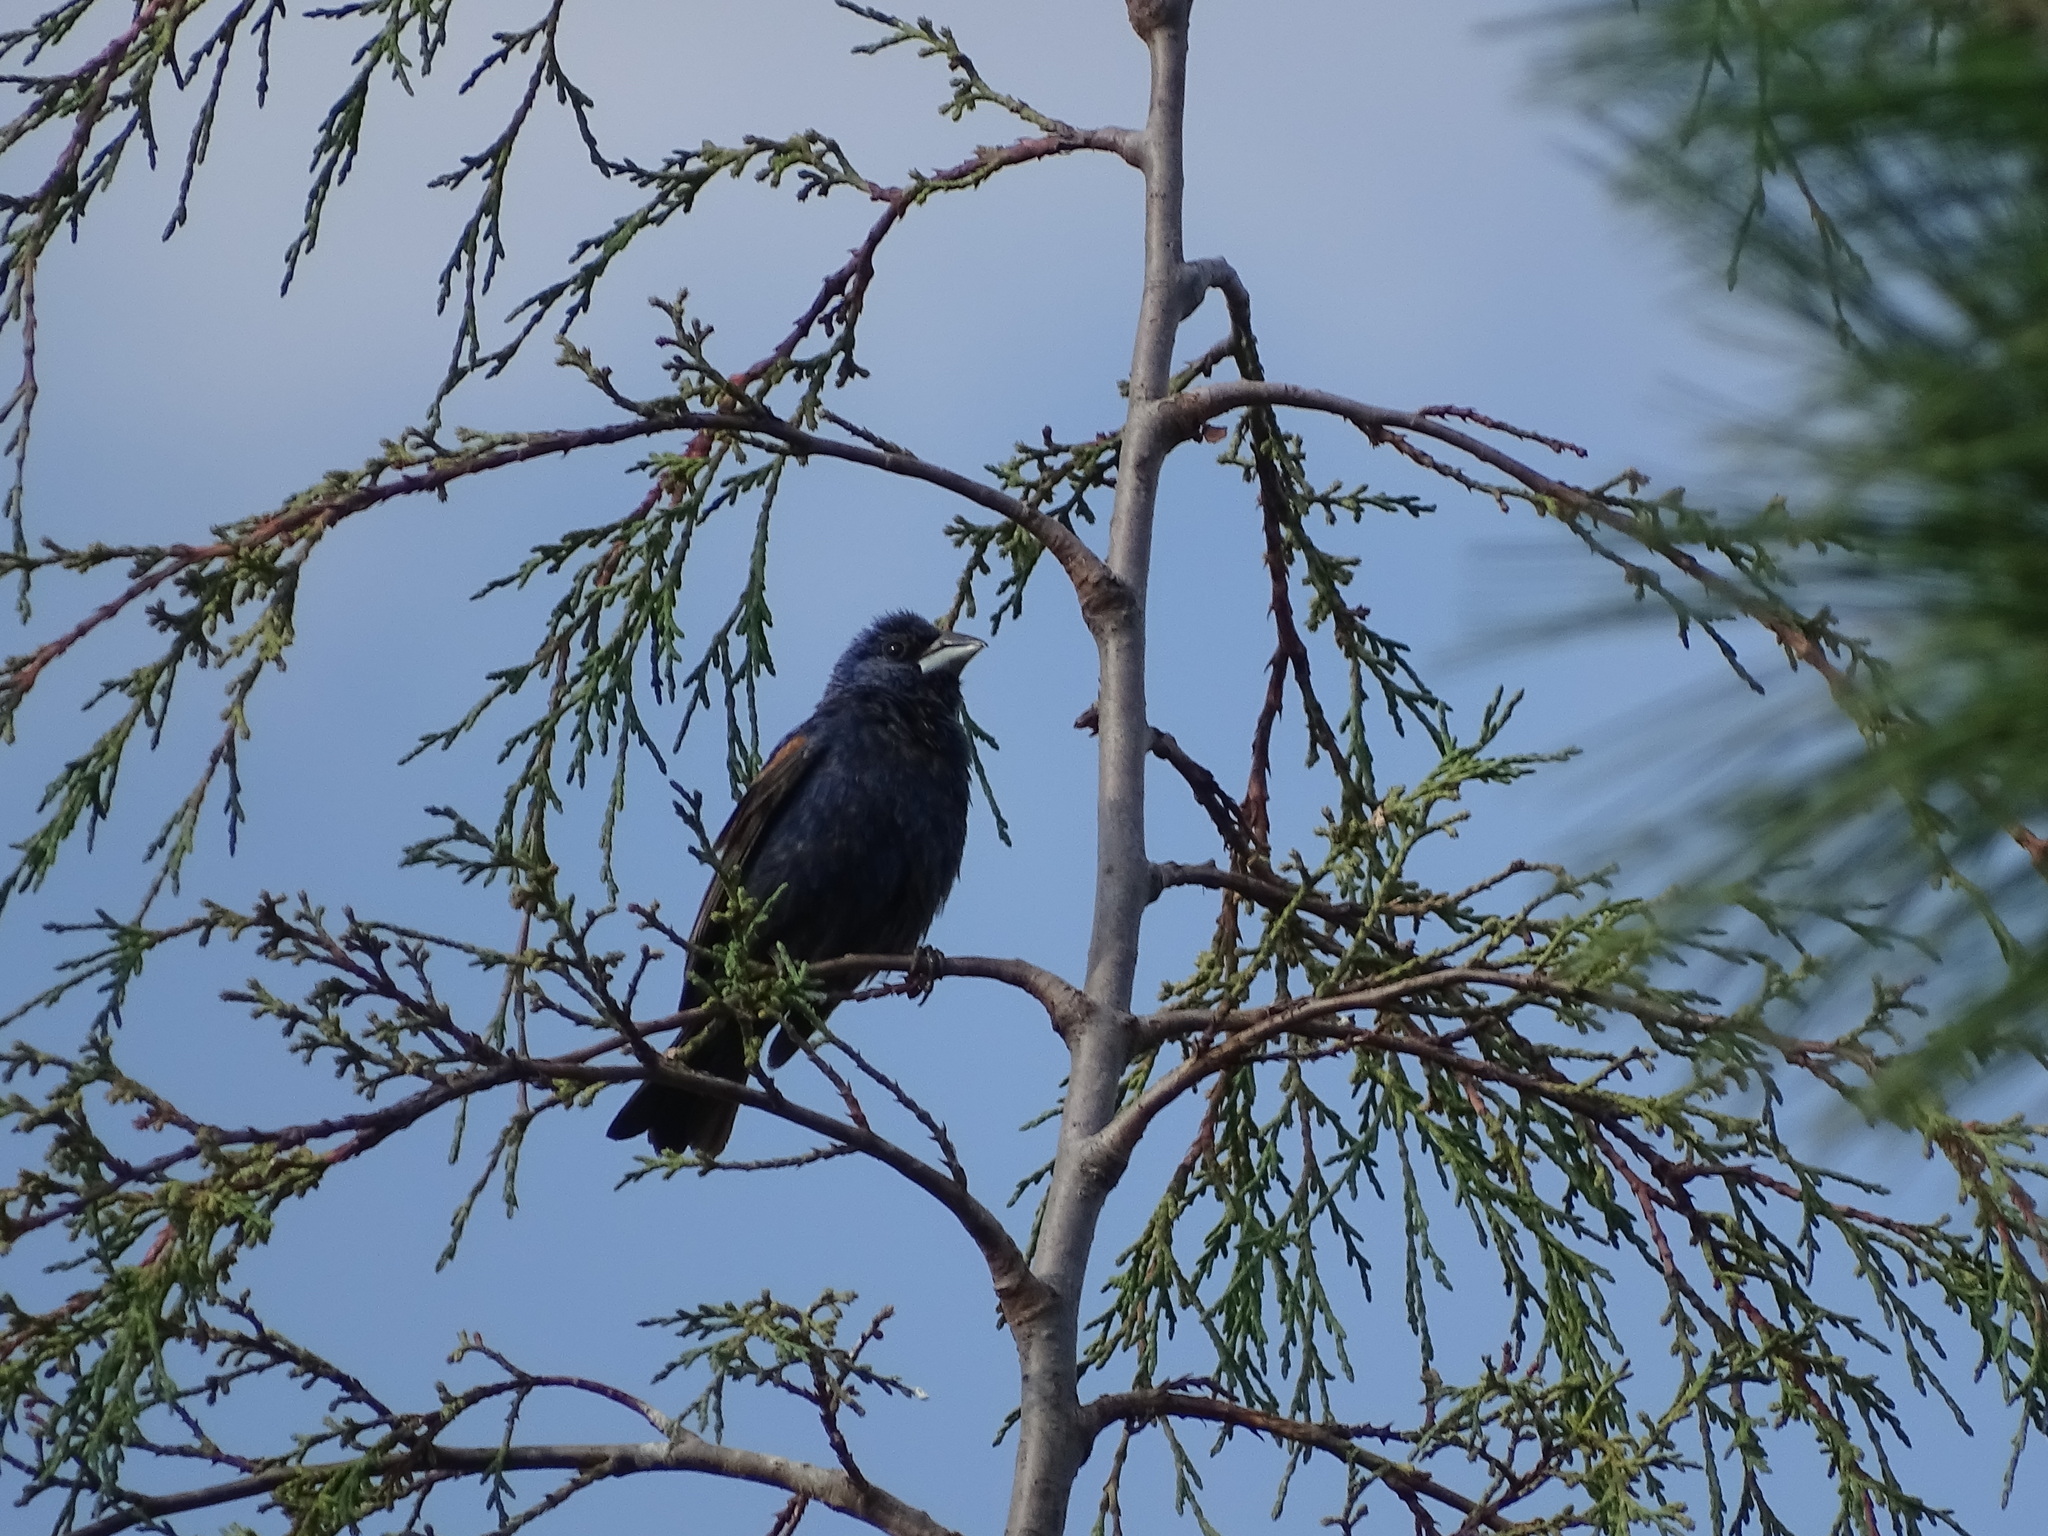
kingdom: Animalia
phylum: Chordata
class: Aves
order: Passeriformes
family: Cardinalidae
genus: Passerina
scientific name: Passerina caerulea
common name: Blue grosbeak
